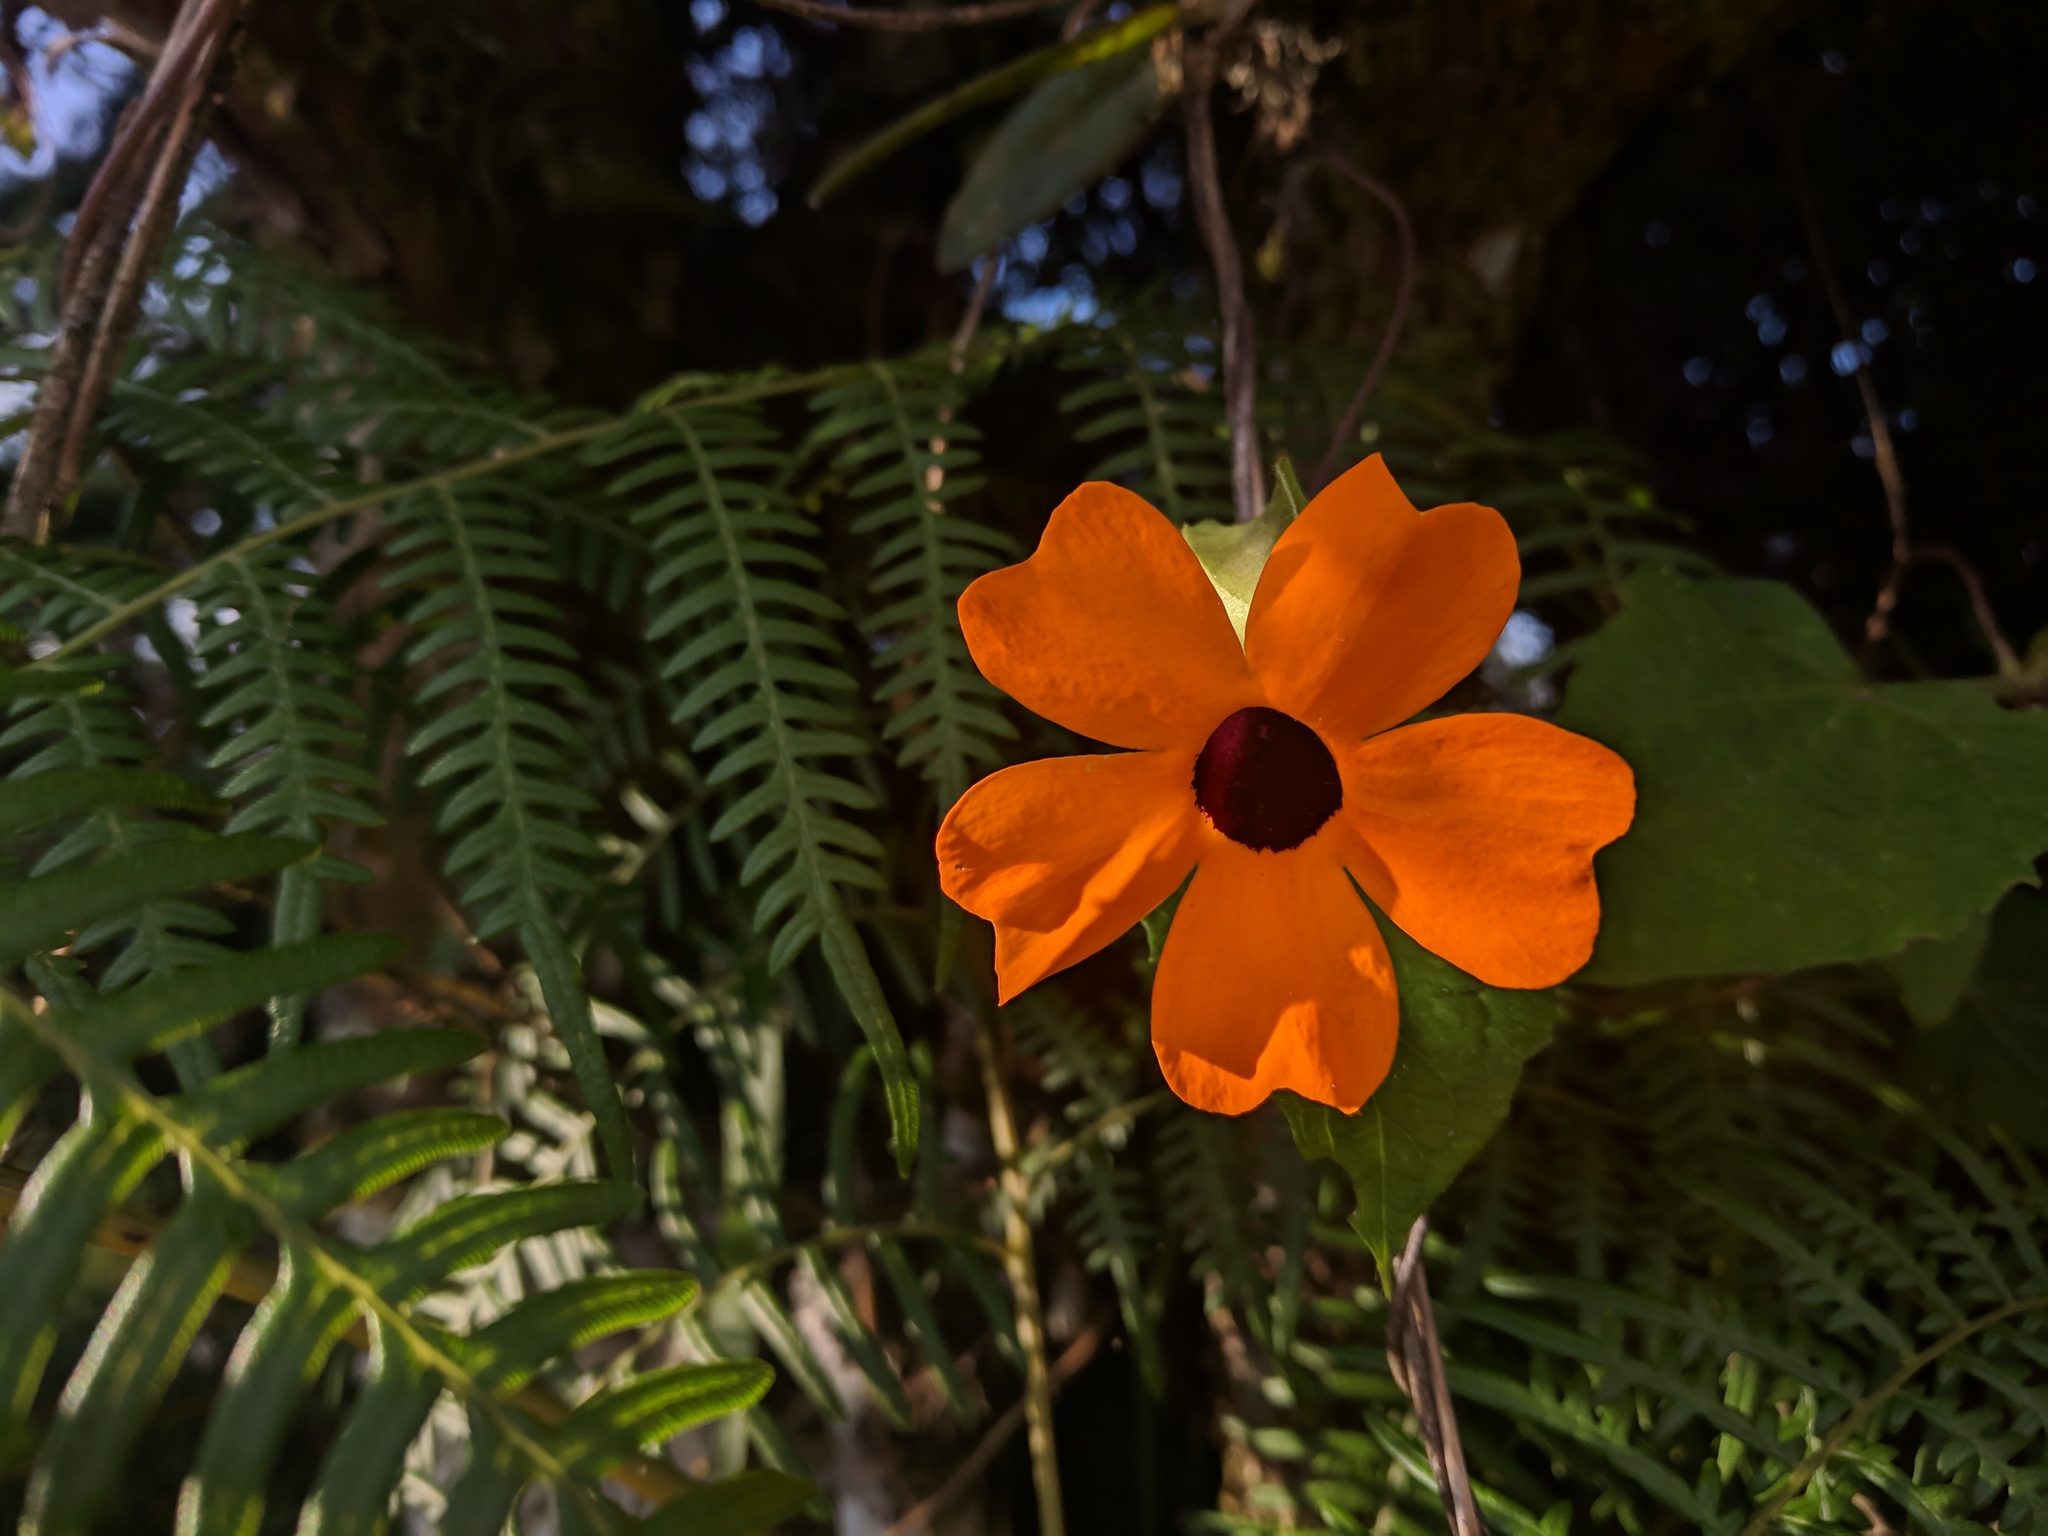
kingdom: Plantae
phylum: Tracheophyta
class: Magnoliopsida
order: Lamiales
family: Acanthaceae
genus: Thunbergia
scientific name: Thunbergia alata
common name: Blackeyed susan vine
